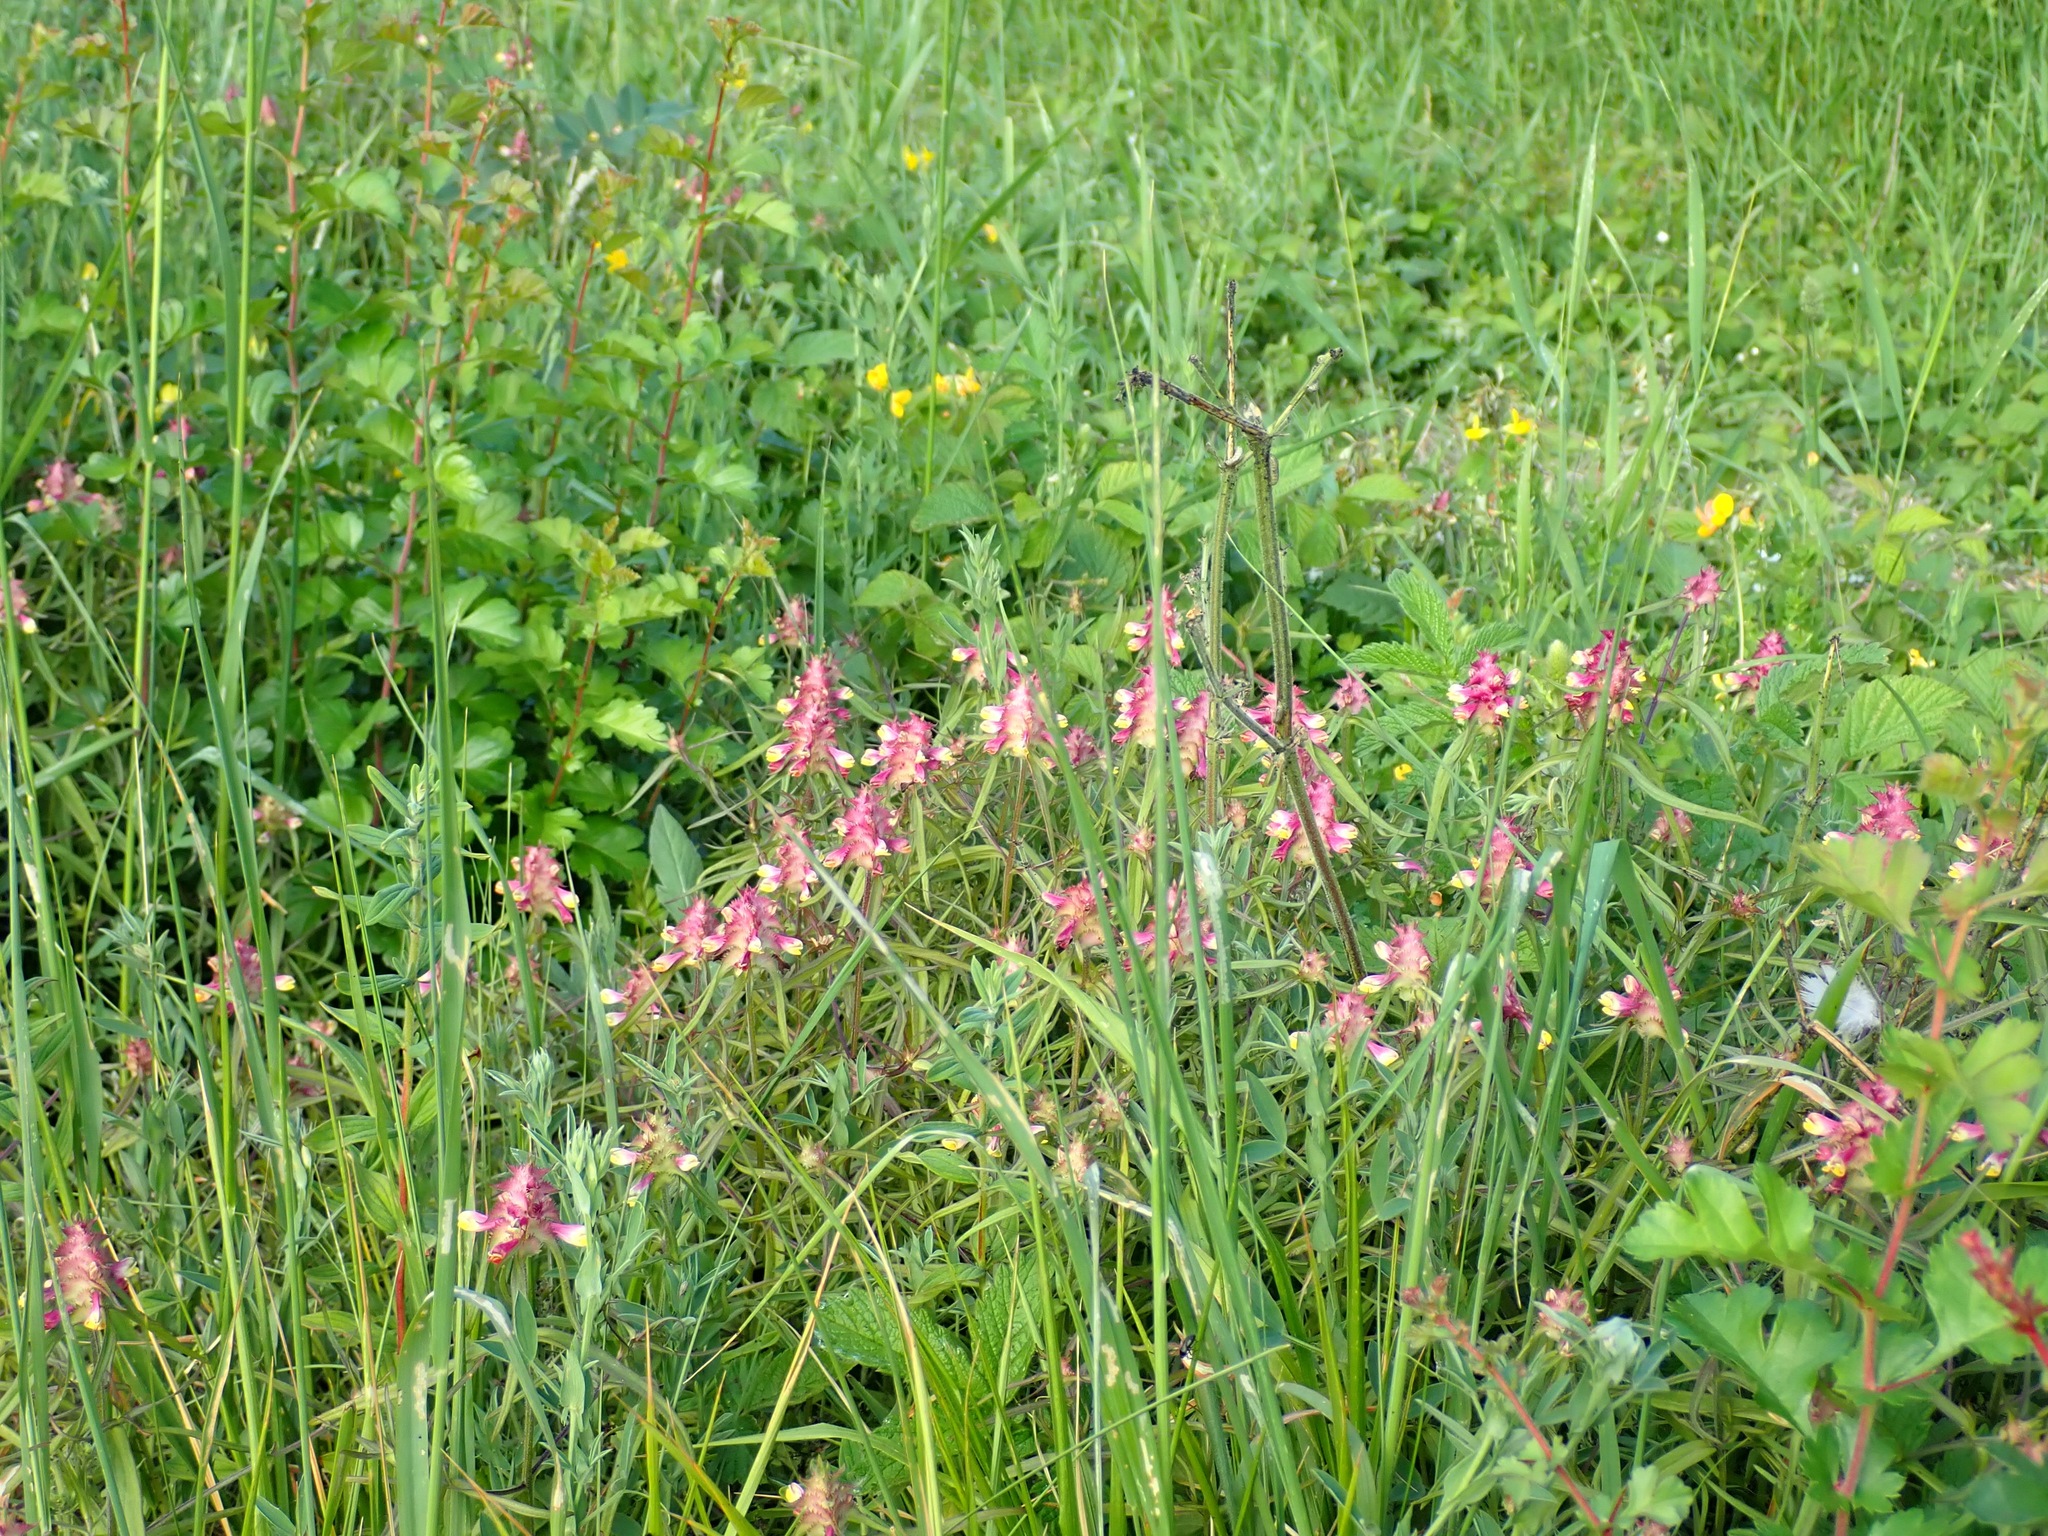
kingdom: Plantae
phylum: Tracheophyta
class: Magnoliopsida
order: Lamiales
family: Orobanchaceae
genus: Melampyrum
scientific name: Melampyrum cristatum
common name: Crested cow-wheat
